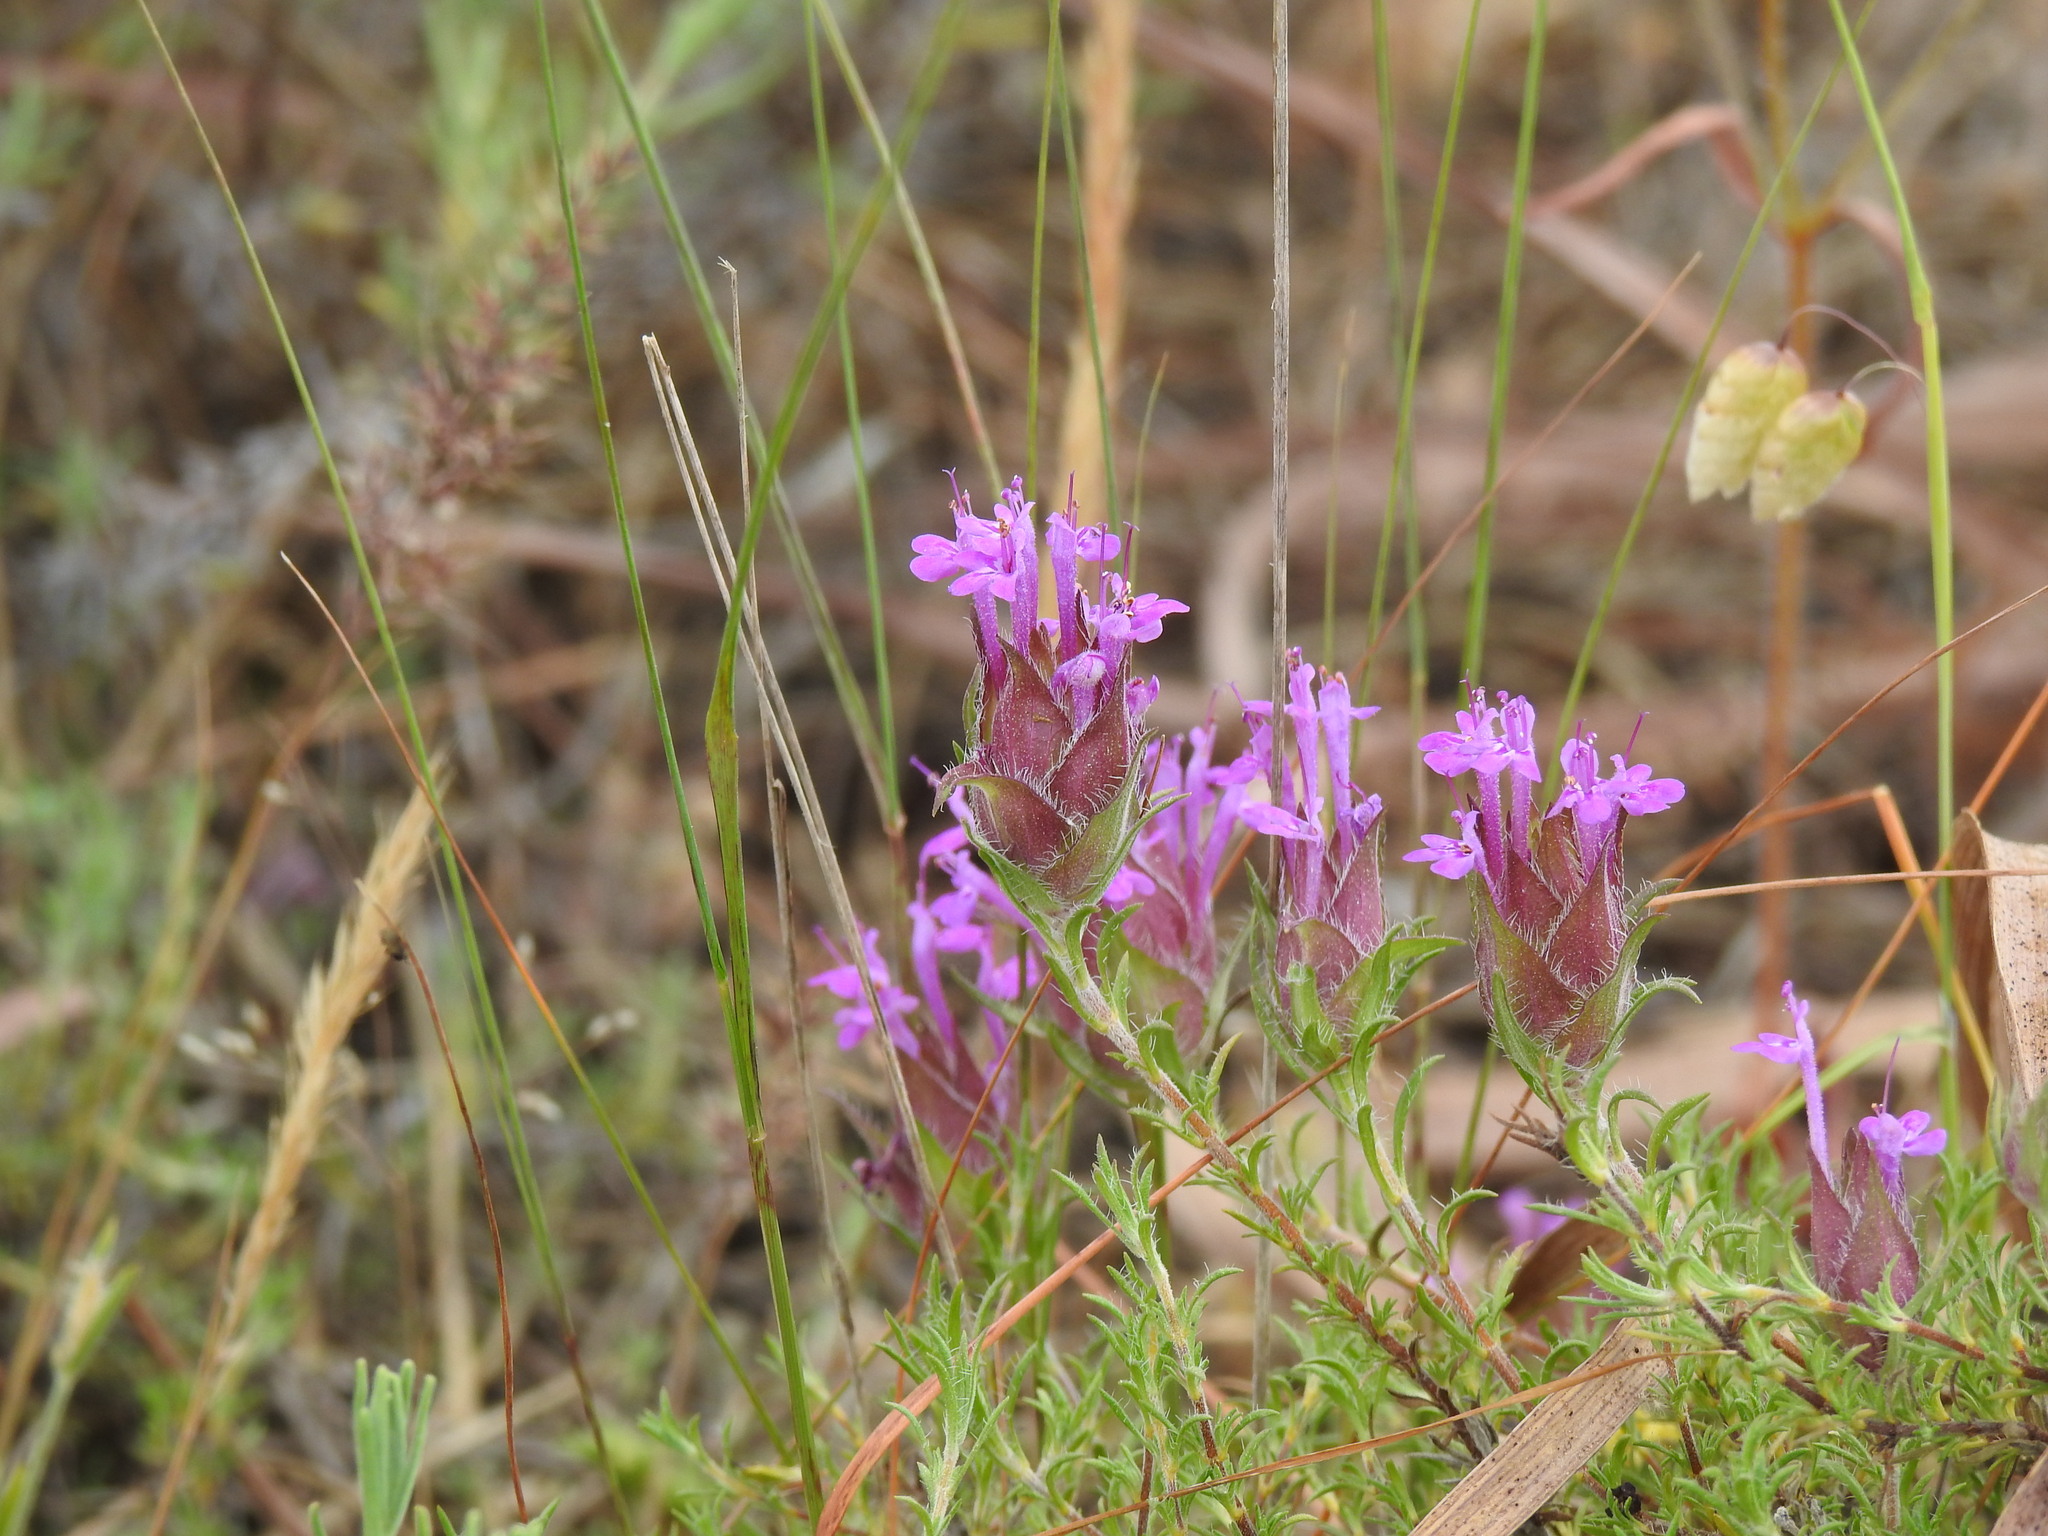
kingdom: Plantae
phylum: Tracheophyta
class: Magnoliopsida
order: Lamiales
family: Lamiaceae
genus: Thymus
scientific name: Thymus lotocephalus
